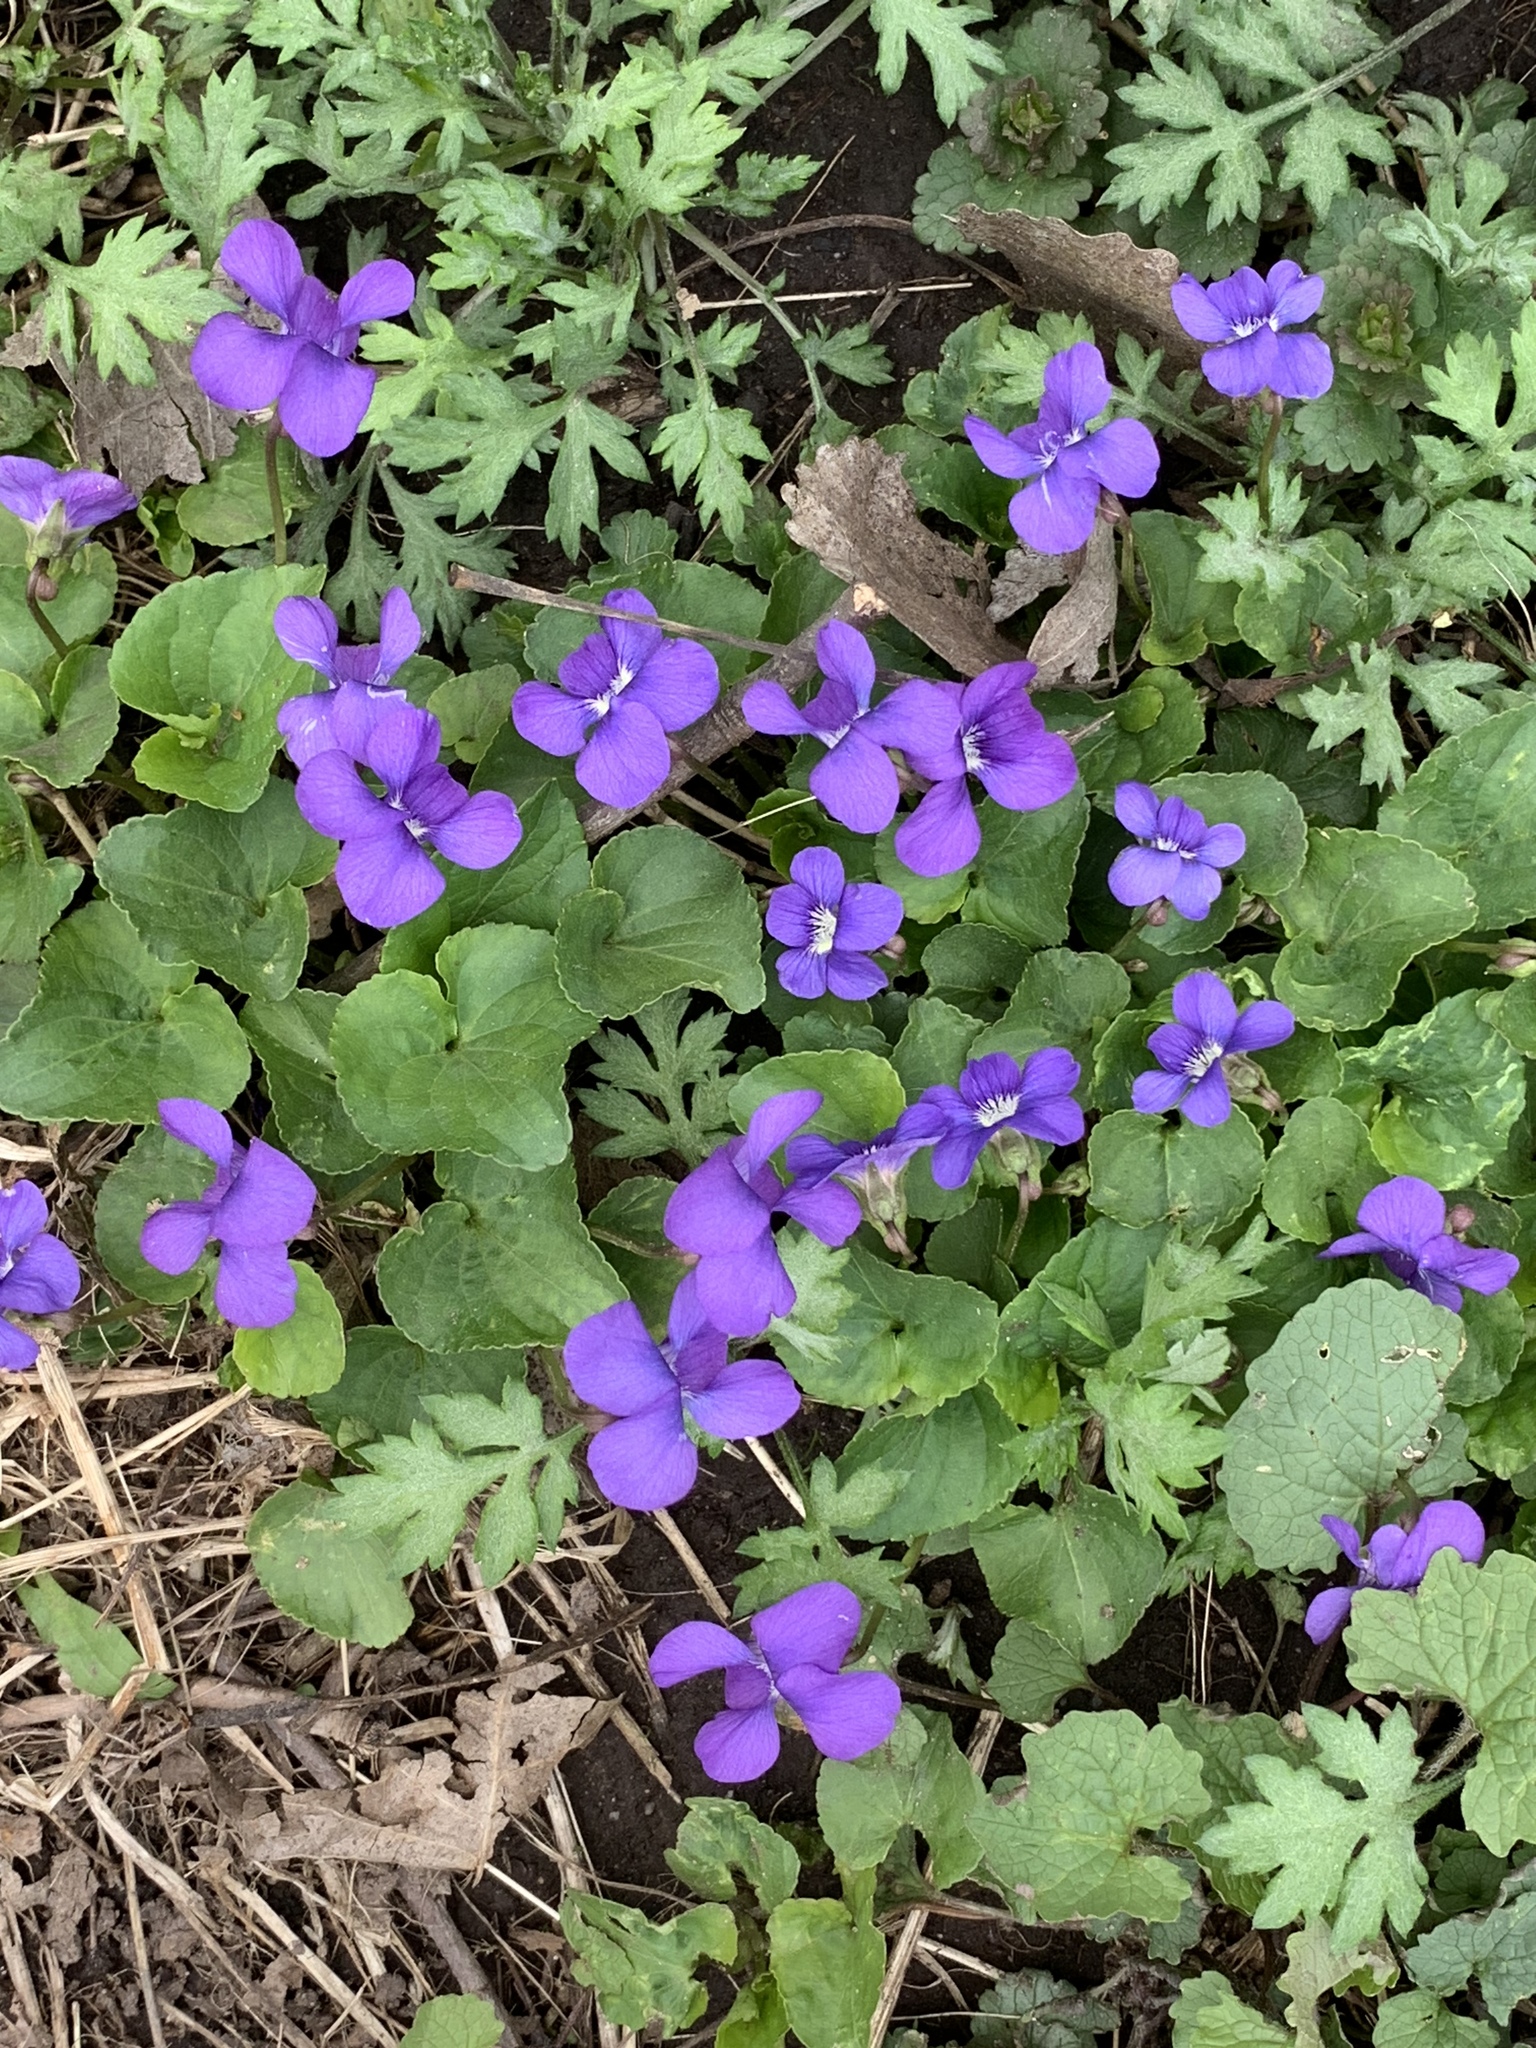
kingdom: Plantae
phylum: Tracheophyta
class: Magnoliopsida
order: Malpighiales
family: Violaceae
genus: Viola
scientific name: Viola sororia
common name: Dooryard violet
